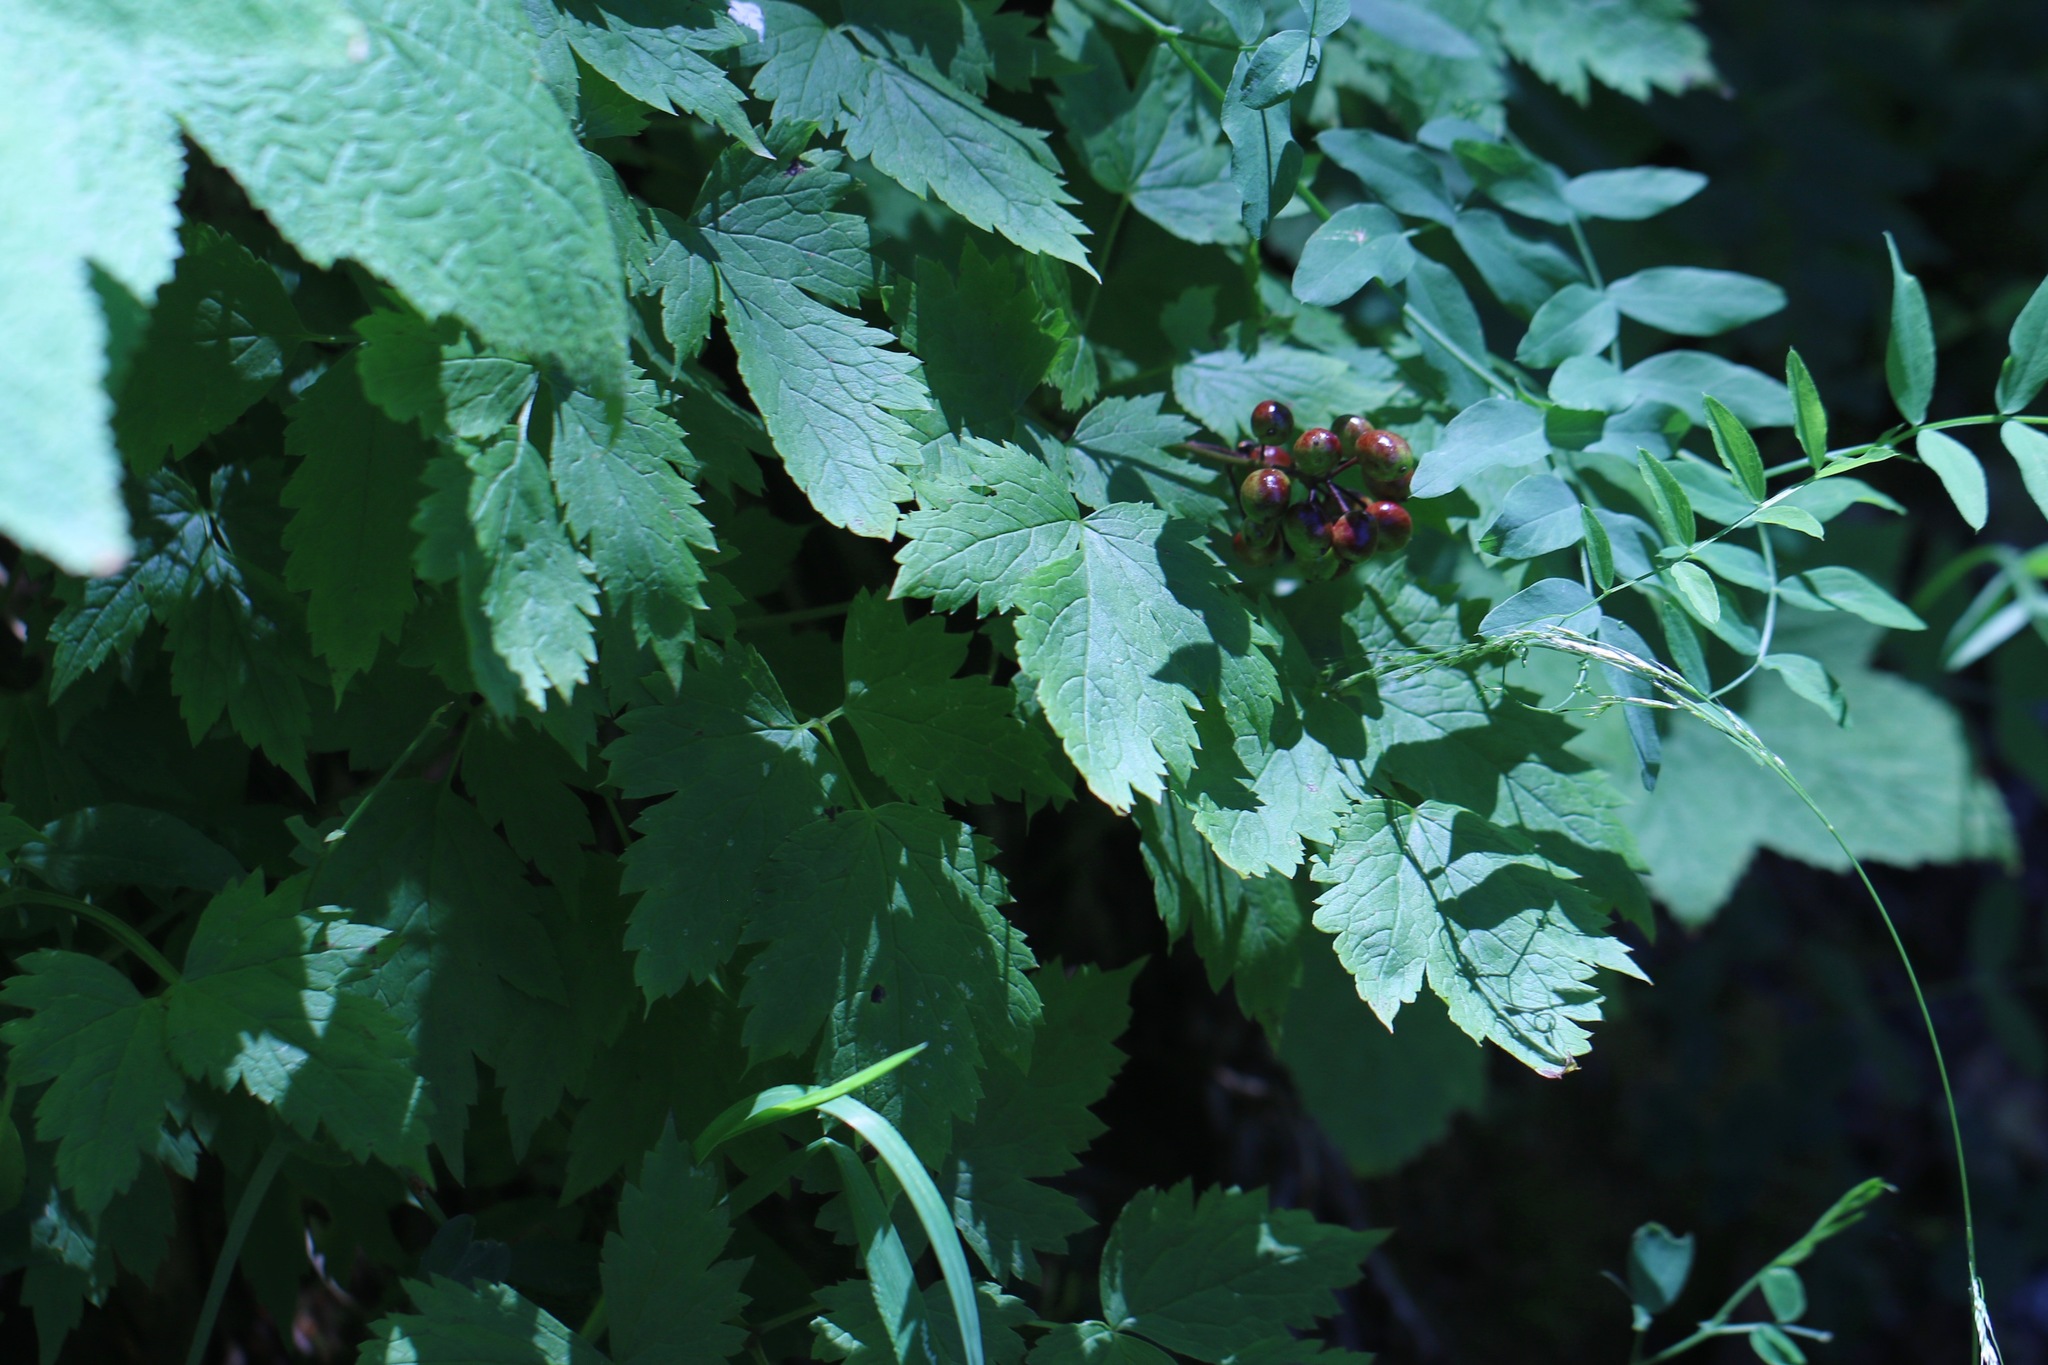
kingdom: Plantae
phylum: Tracheophyta
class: Magnoliopsida
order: Ranunculales
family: Ranunculaceae
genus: Actaea
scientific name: Actaea rubra
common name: Red baneberry
